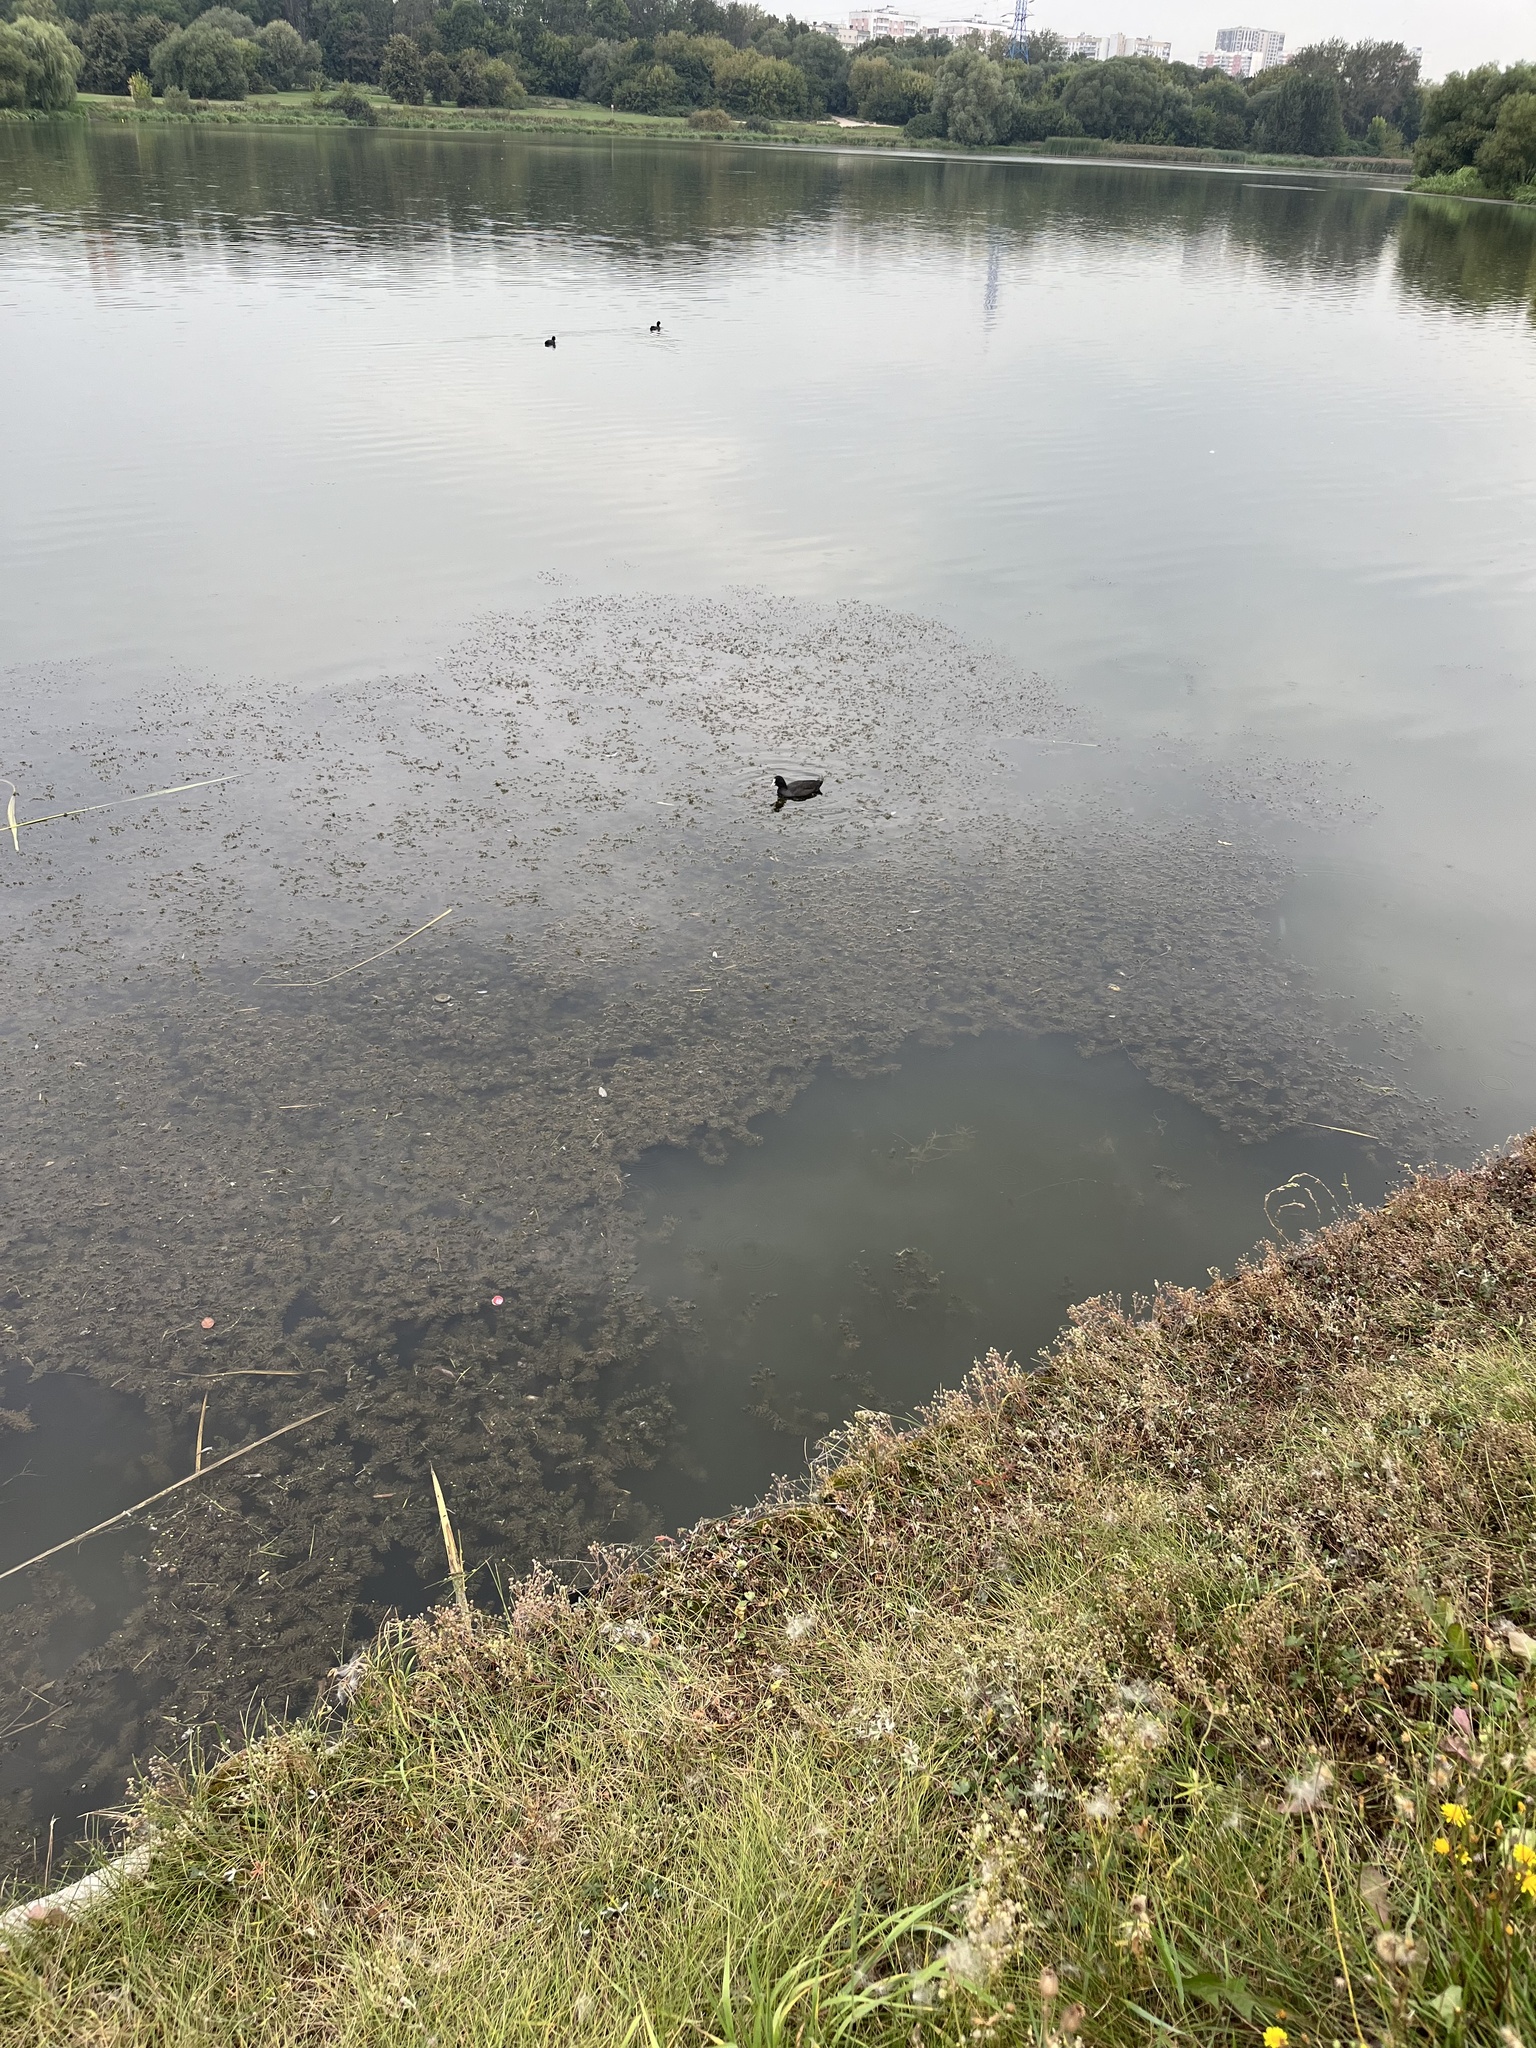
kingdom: Animalia
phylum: Chordata
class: Aves
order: Gruiformes
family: Rallidae
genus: Fulica
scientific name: Fulica atra
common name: Eurasian coot
